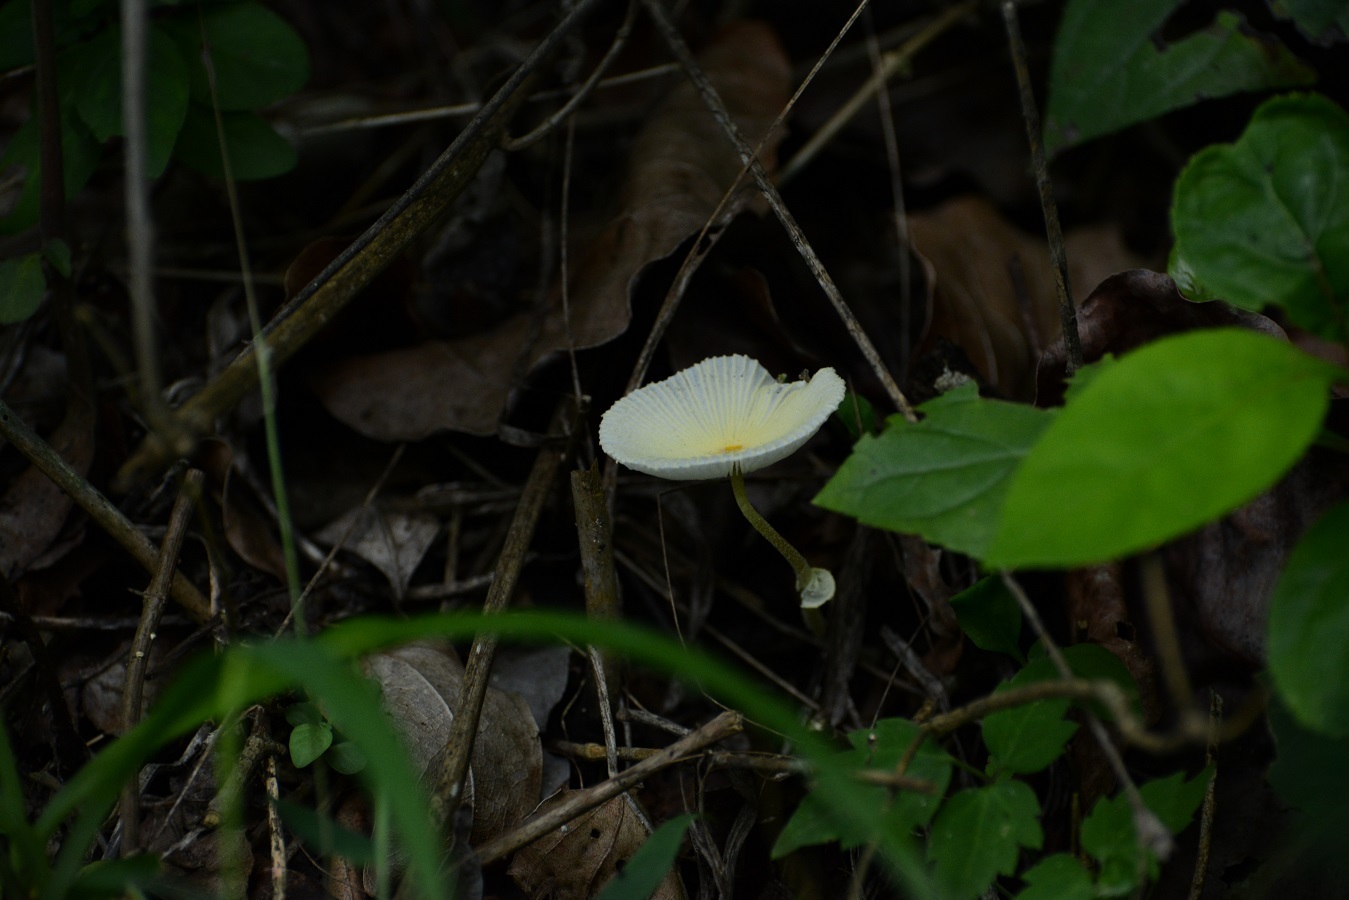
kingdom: Fungi
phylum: Basidiomycota
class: Agaricomycetes
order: Agaricales
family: Agaricaceae
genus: Leucocoprinus
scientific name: Leucocoprinus fragilissimus
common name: Fragile dapperling
